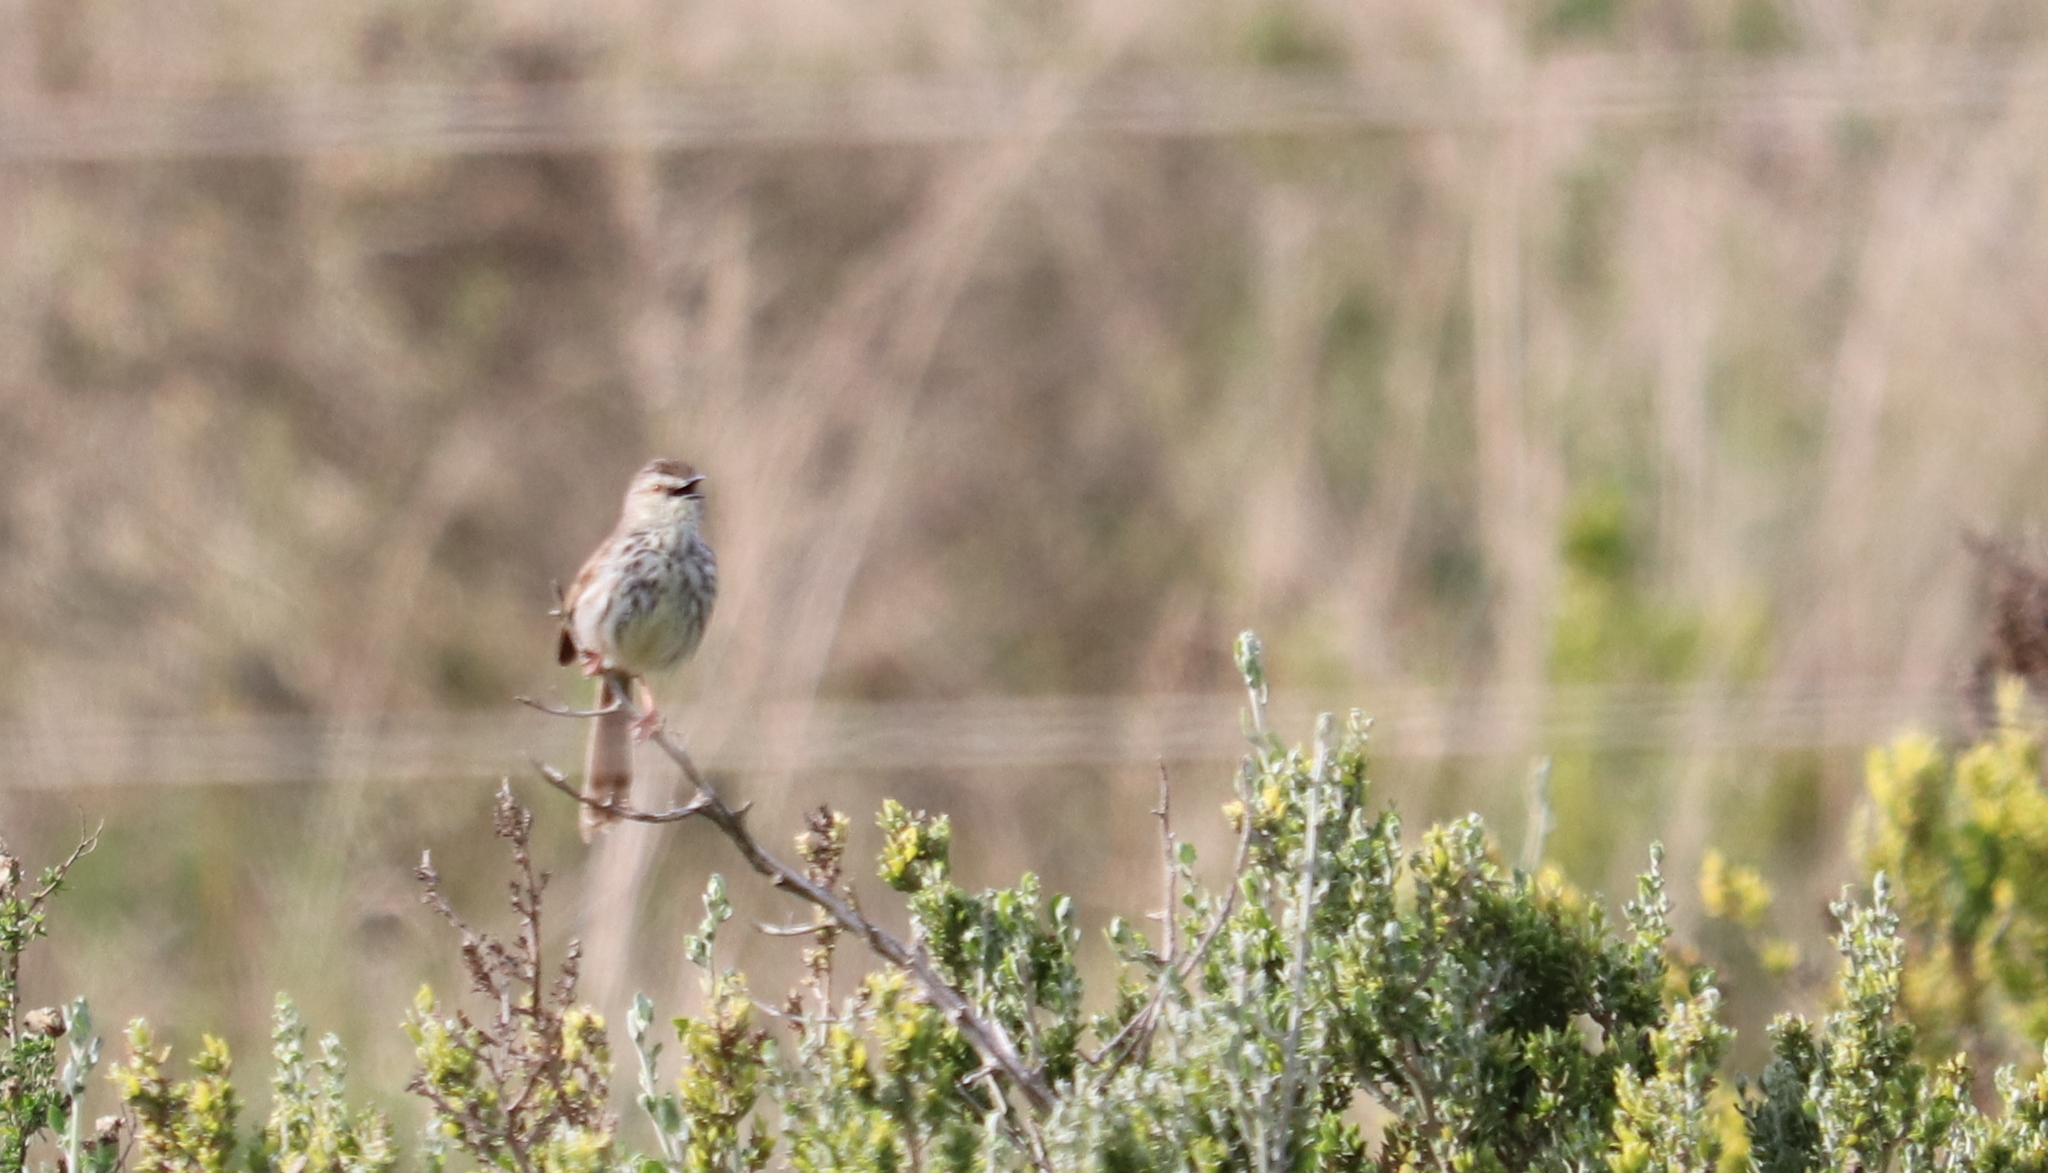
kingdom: Animalia
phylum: Chordata
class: Aves
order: Passeriformes
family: Cisticolidae
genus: Prinia
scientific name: Prinia maculosa
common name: Karoo prinia
